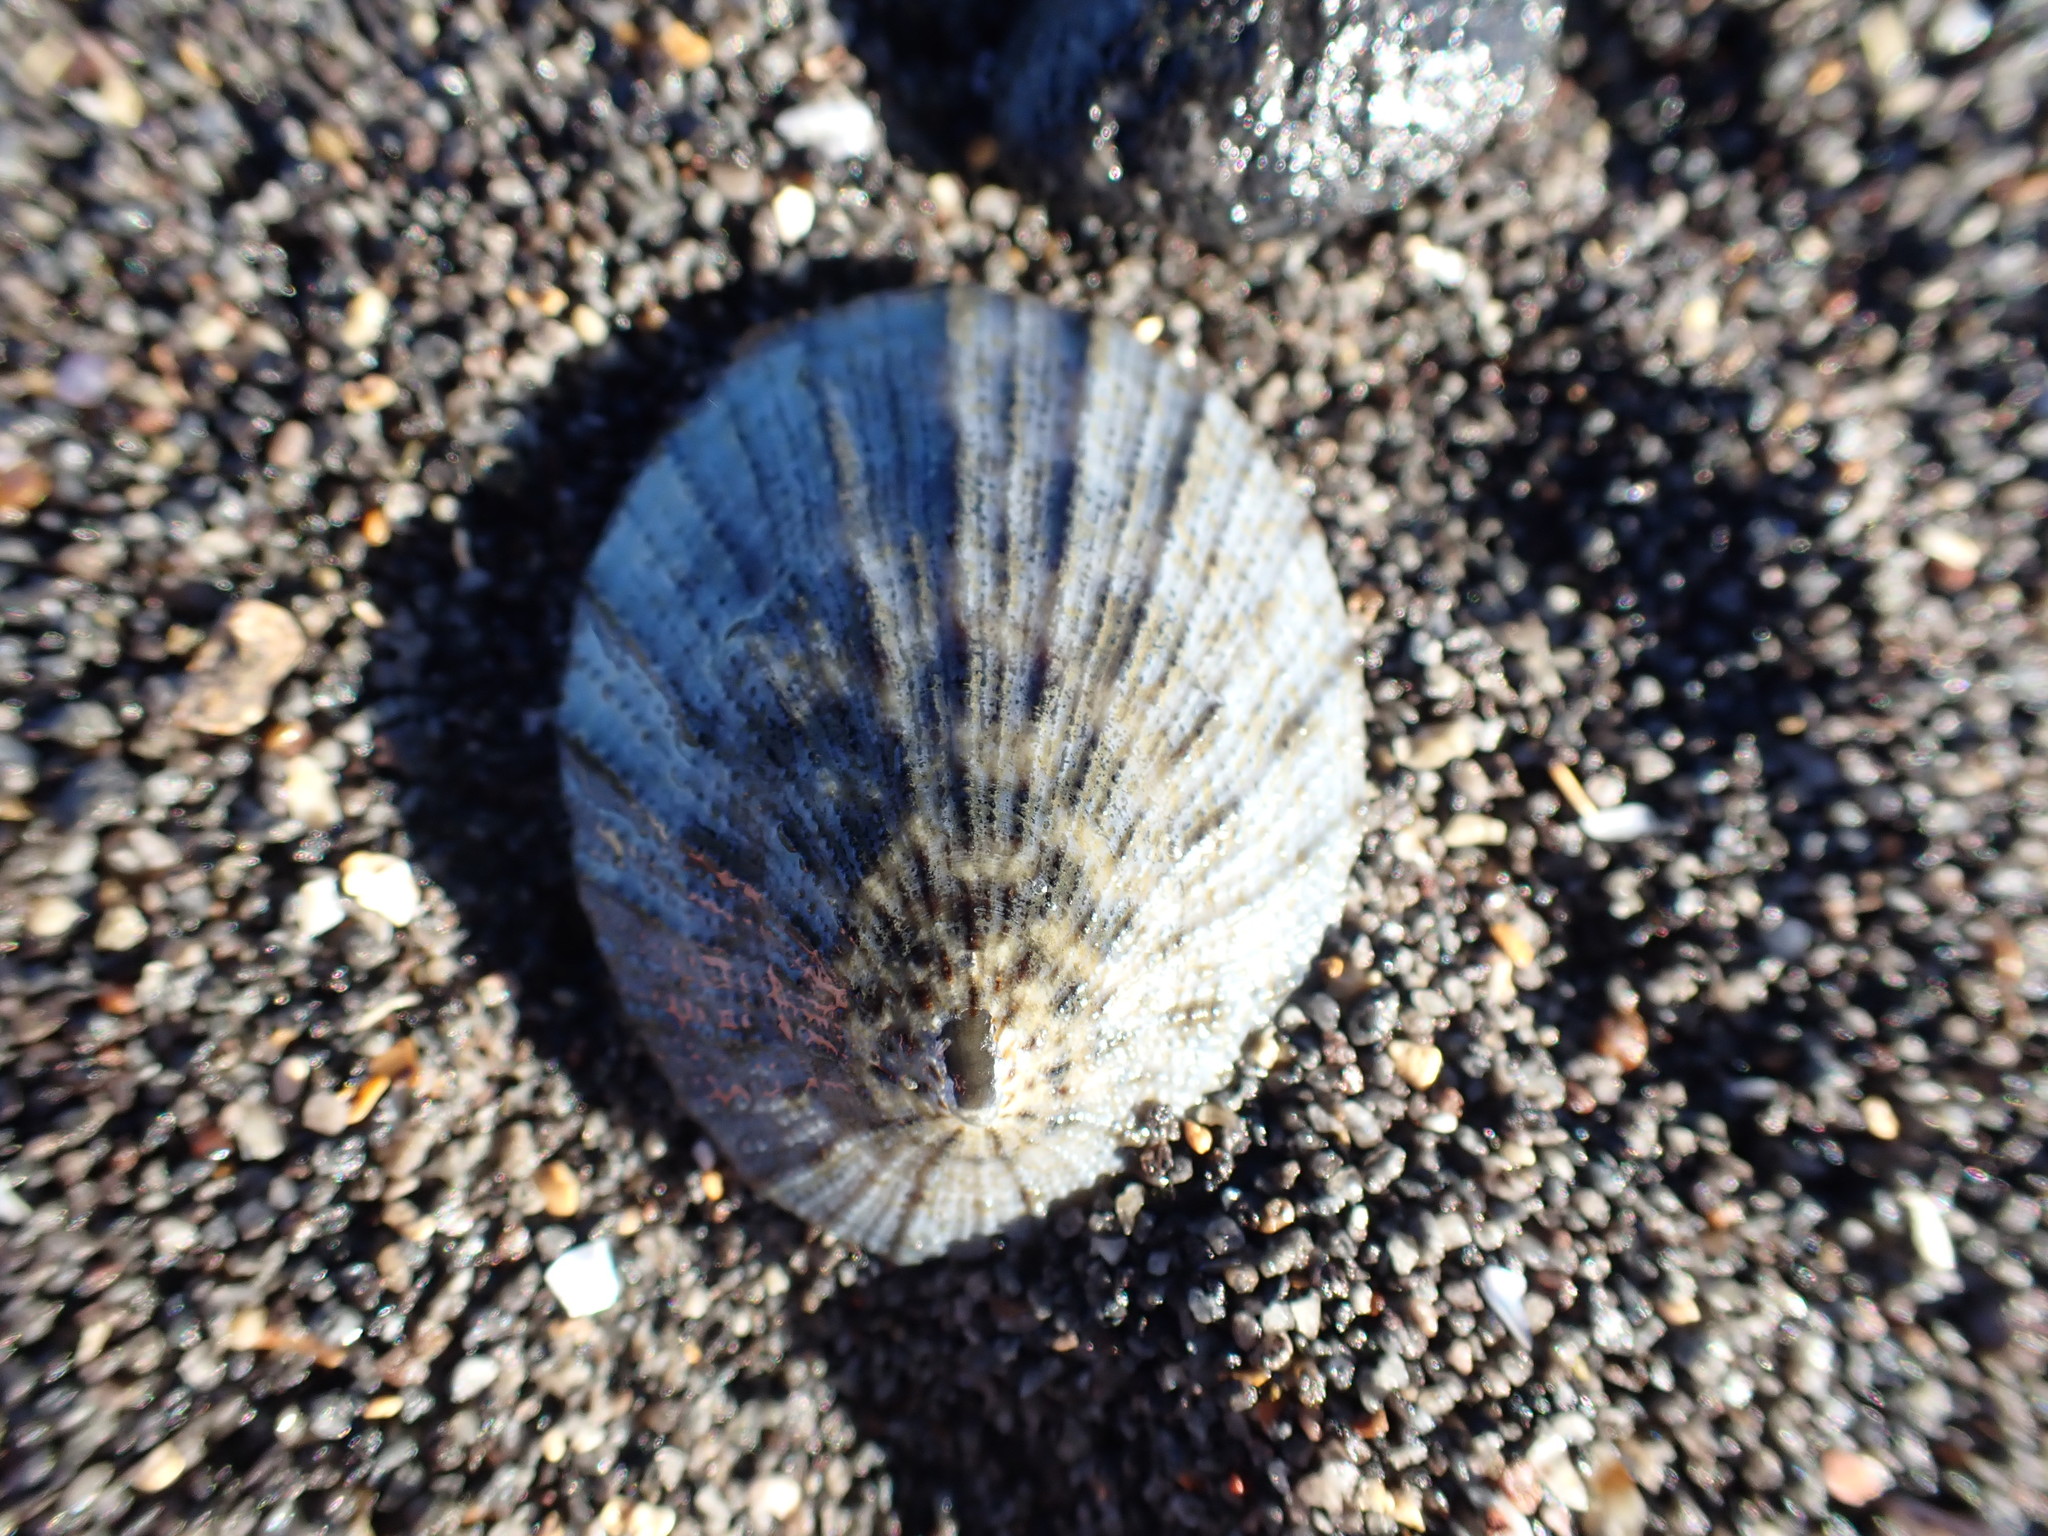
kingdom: Animalia
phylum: Mollusca
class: Gastropoda
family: Nacellidae
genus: Cellana
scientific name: Cellana radians
